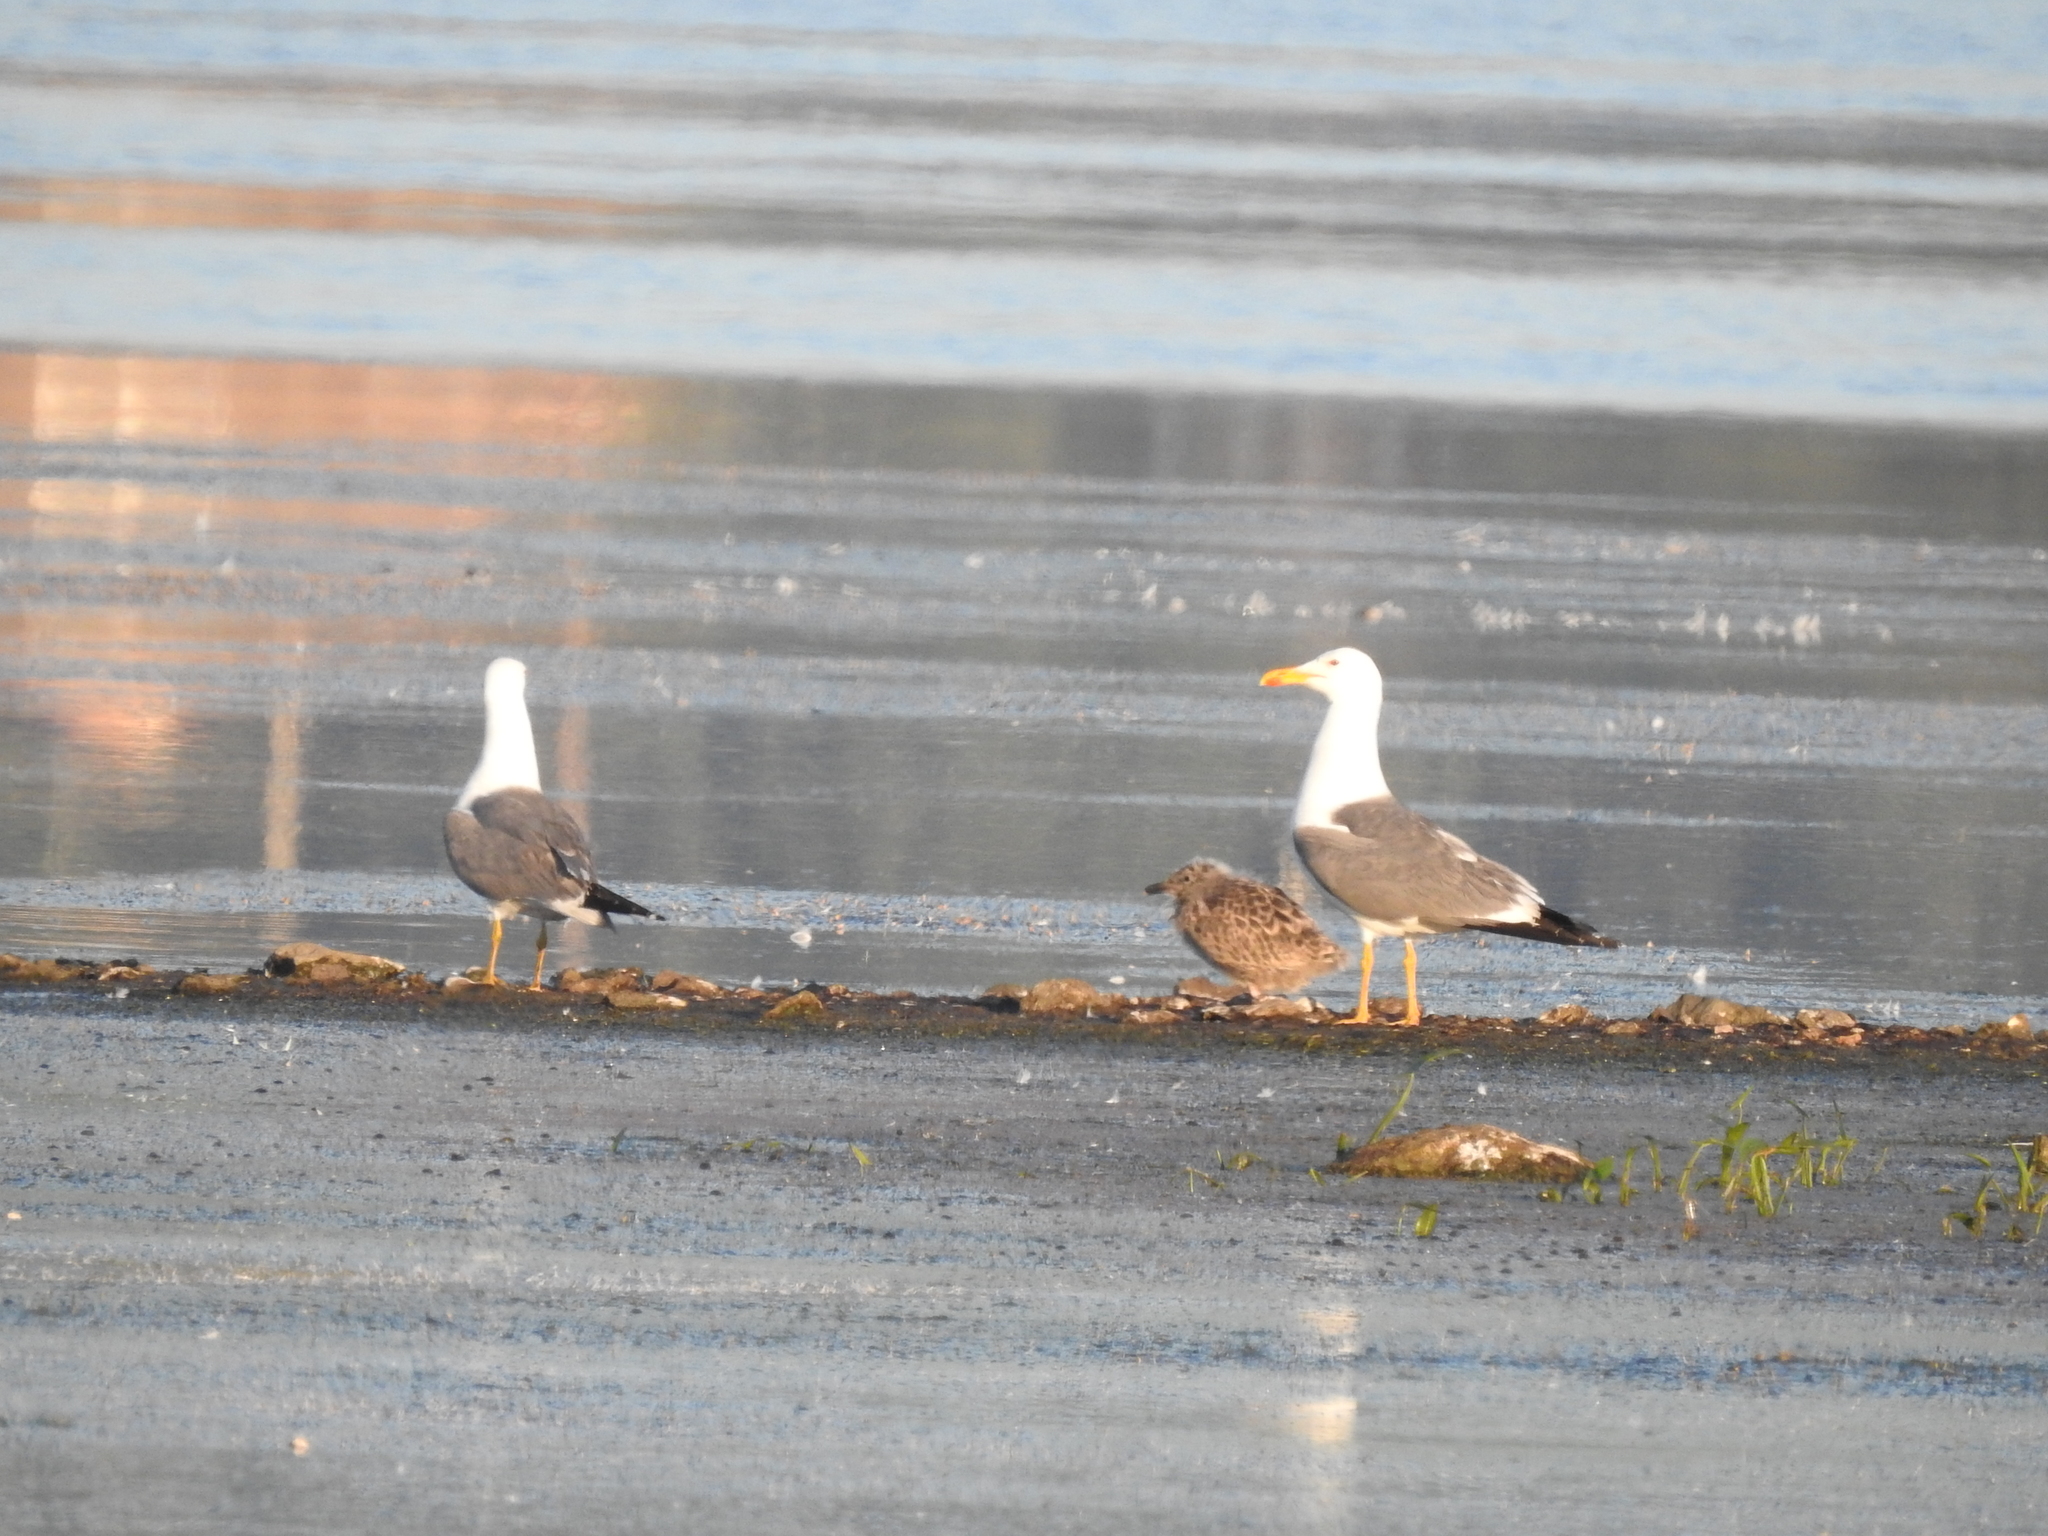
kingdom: Animalia
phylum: Chordata
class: Aves
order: Charadriiformes
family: Laridae
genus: Larus
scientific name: Larus fuscus
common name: Lesser black-backed gull
